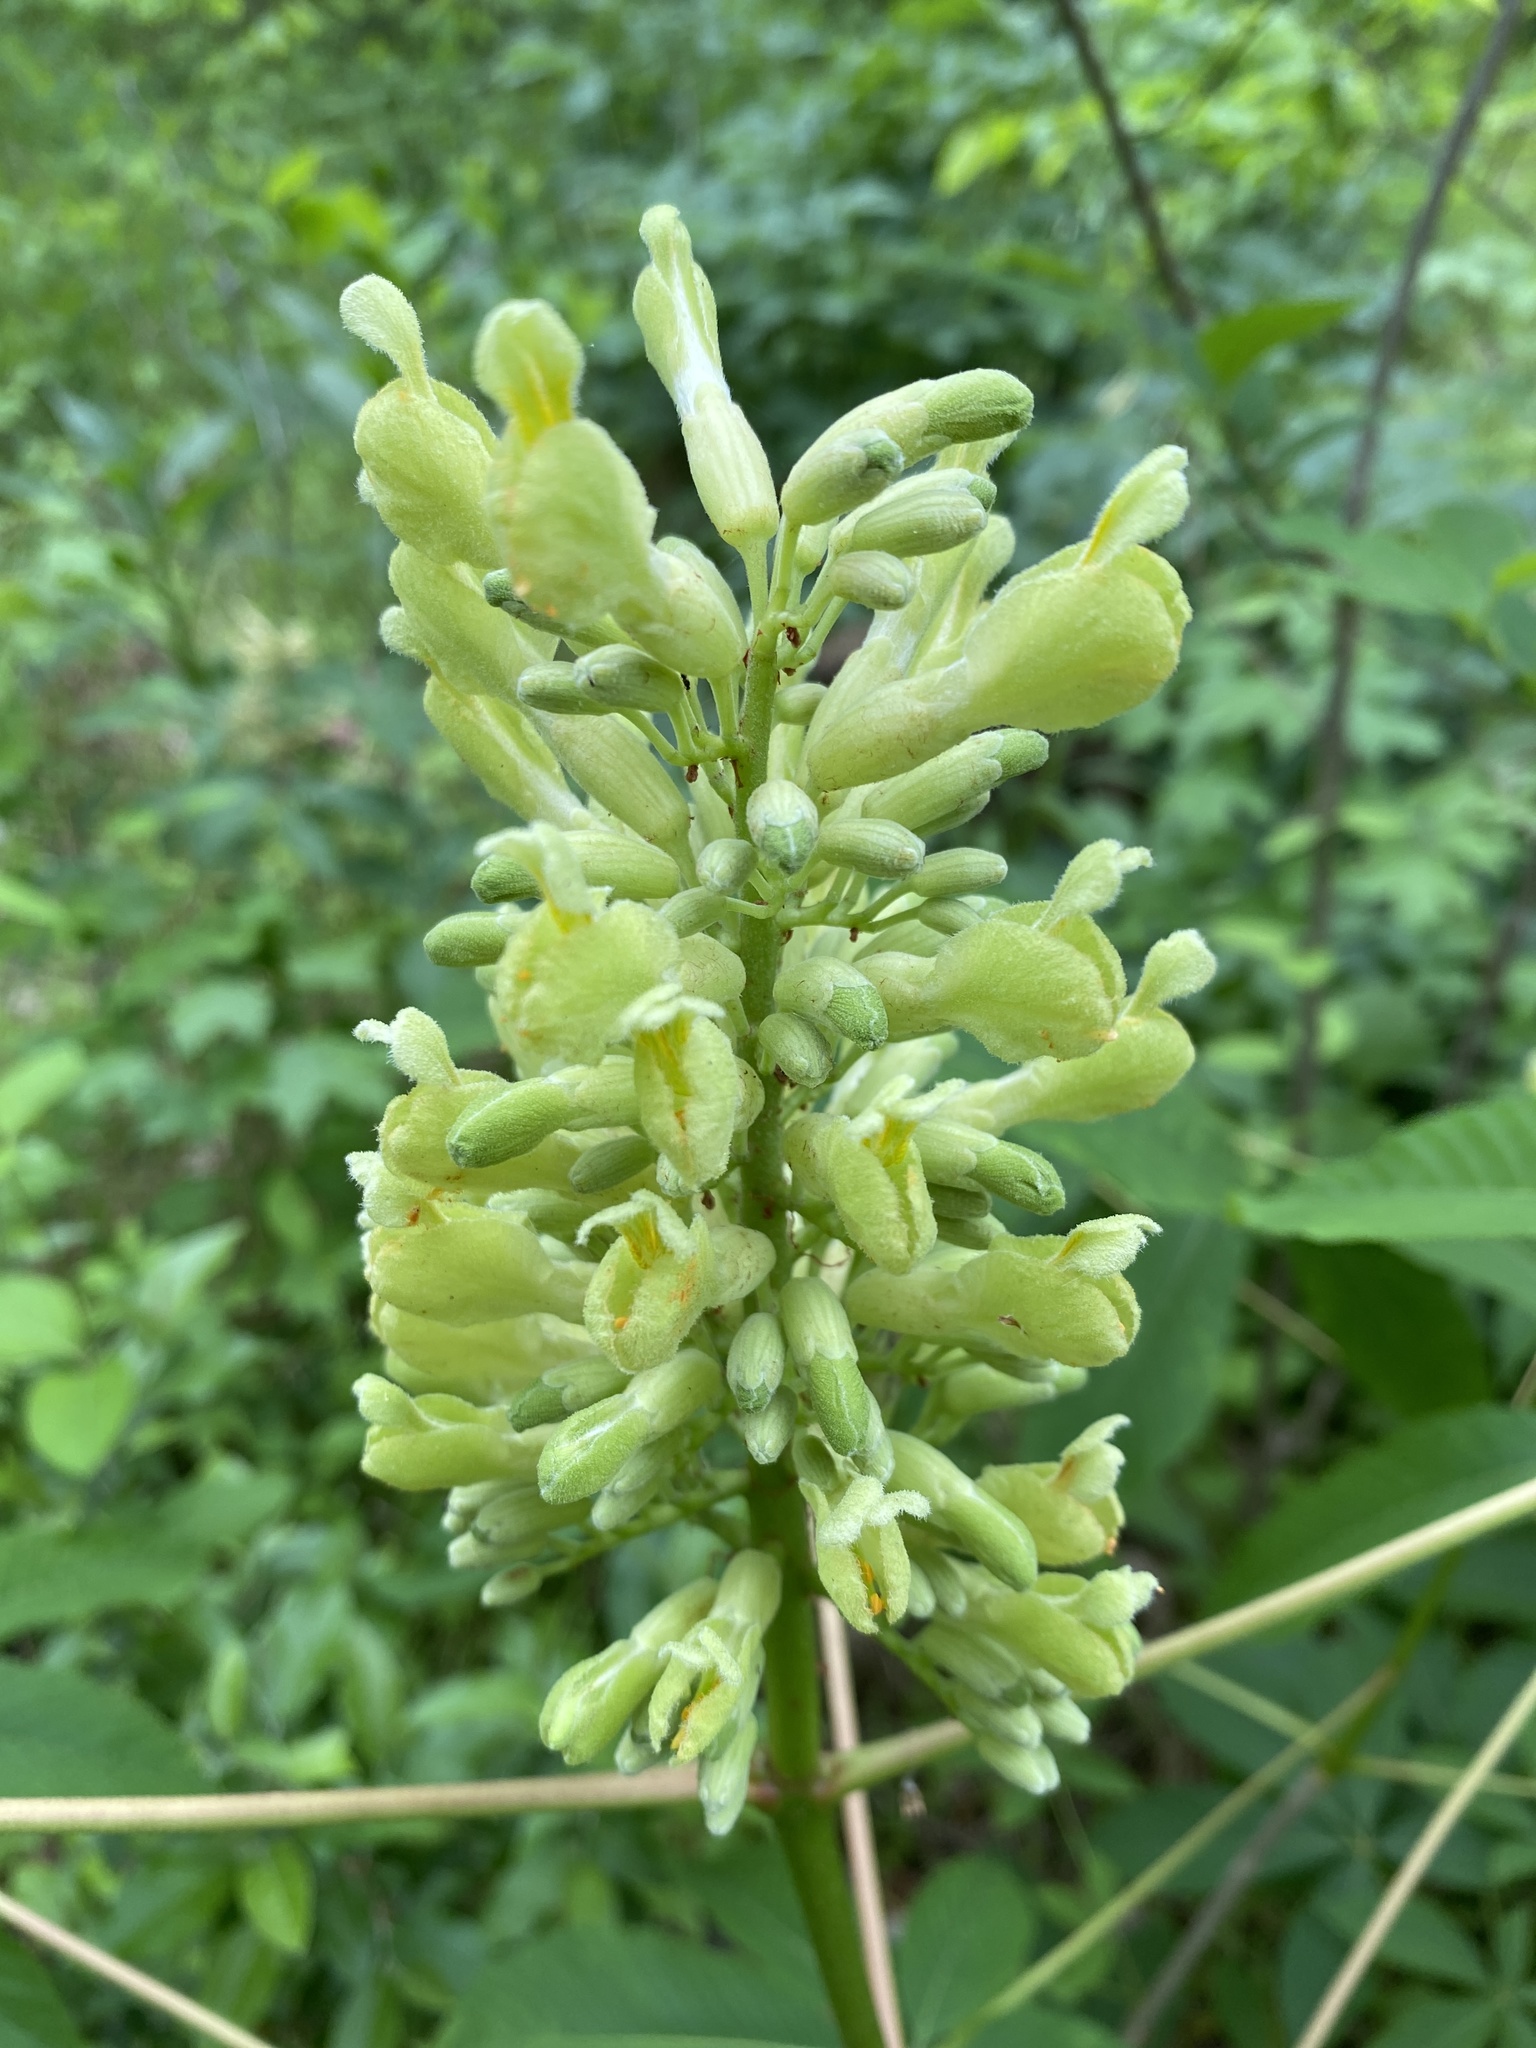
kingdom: Plantae
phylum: Tracheophyta
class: Magnoliopsida
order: Sapindales
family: Sapindaceae
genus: Aesculus
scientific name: Aesculus sylvatica
